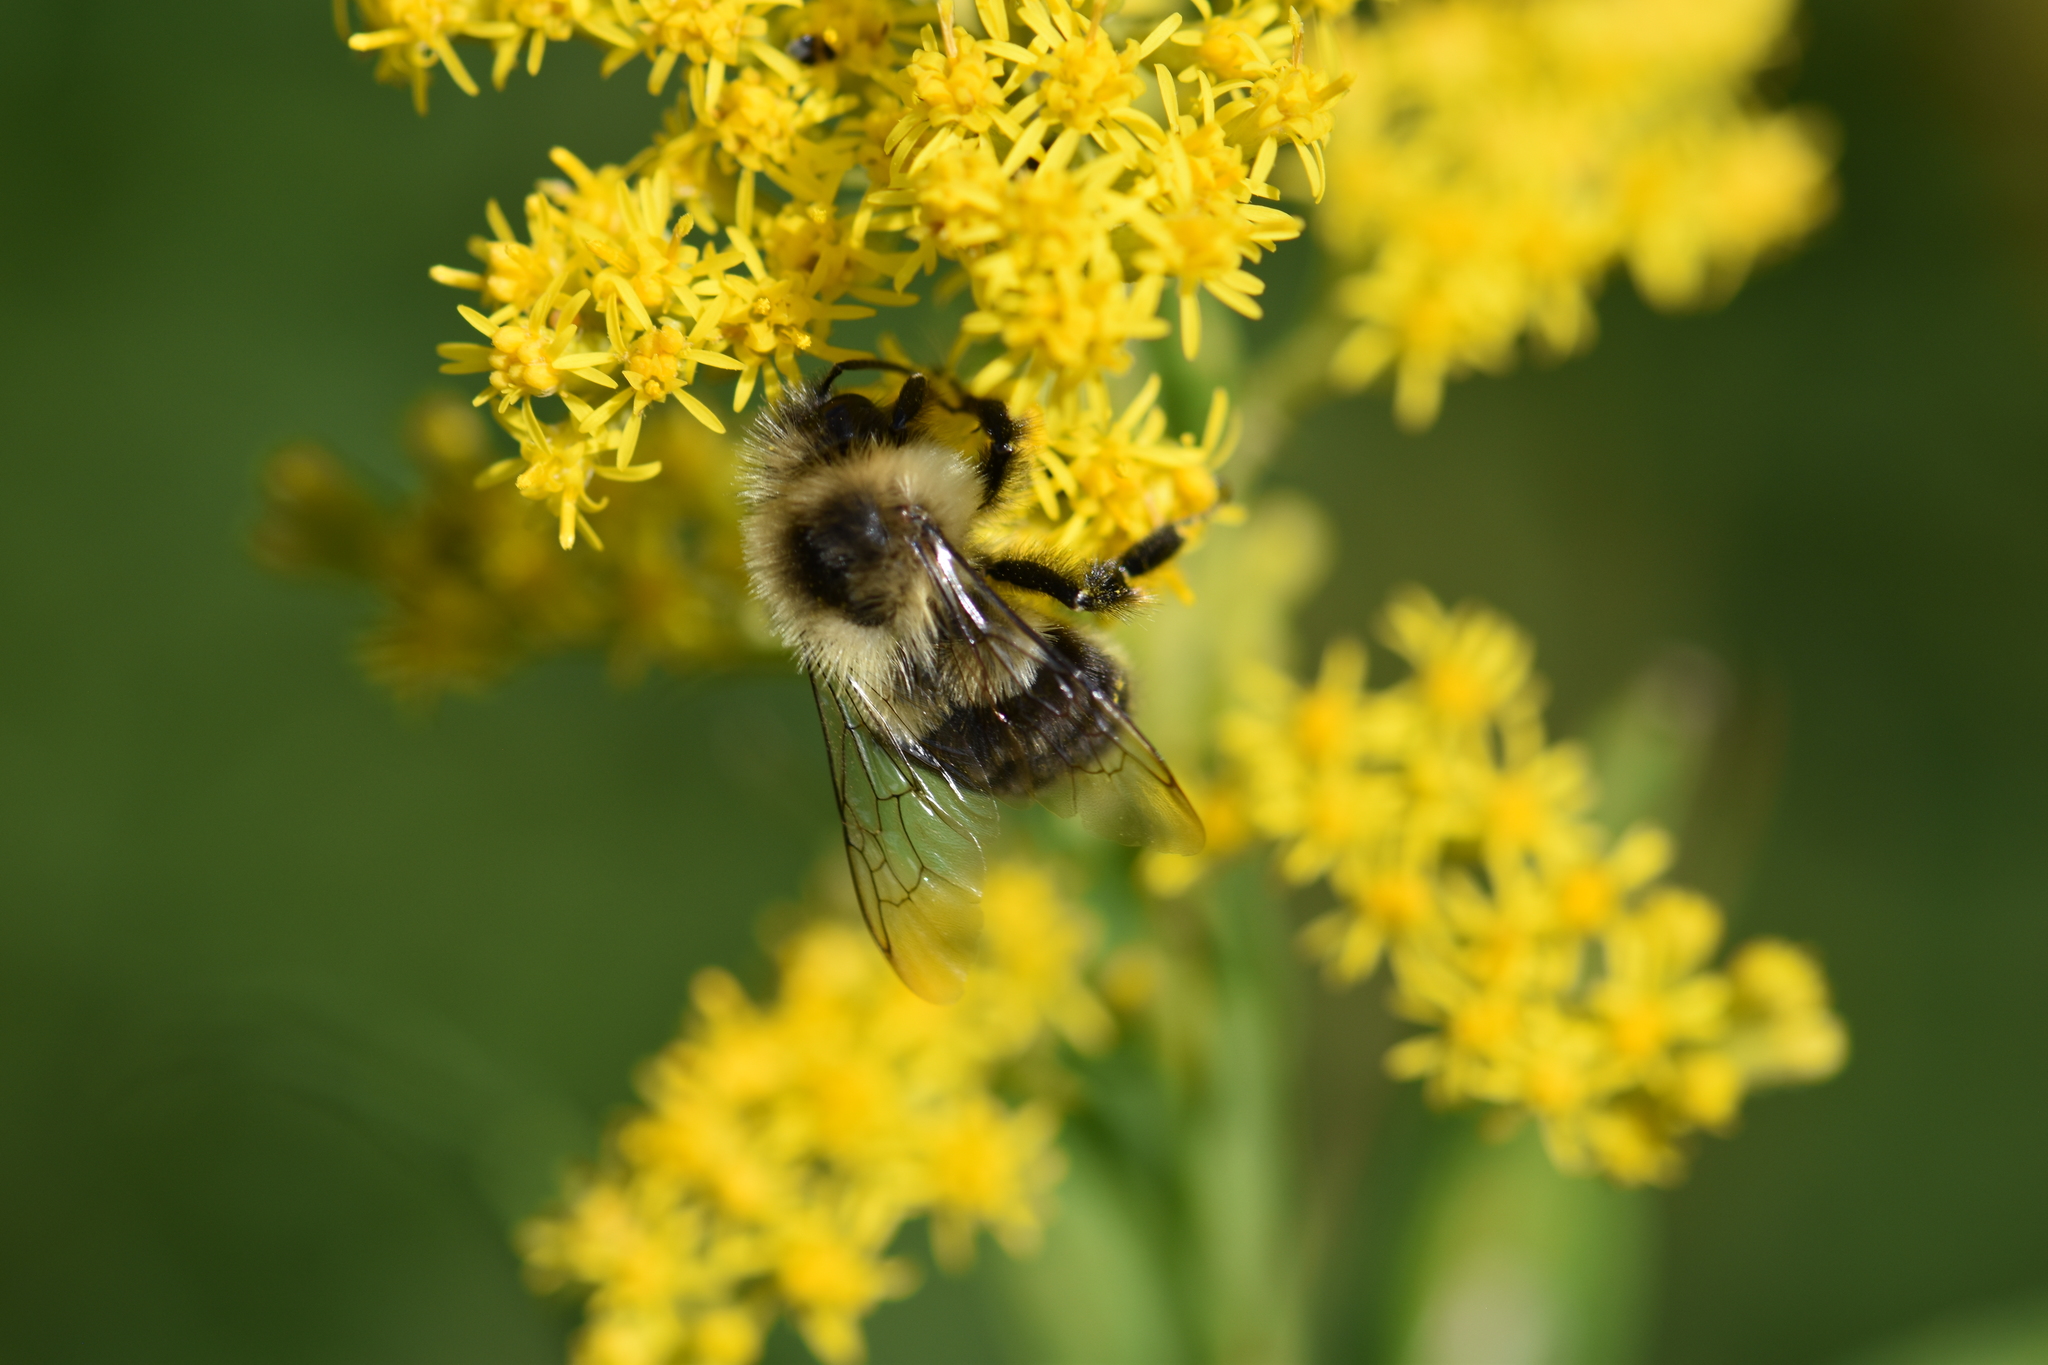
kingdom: Animalia
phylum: Arthropoda
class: Insecta
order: Hymenoptera
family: Apidae
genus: Bombus
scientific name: Bombus impatiens
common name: Common eastern bumble bee
